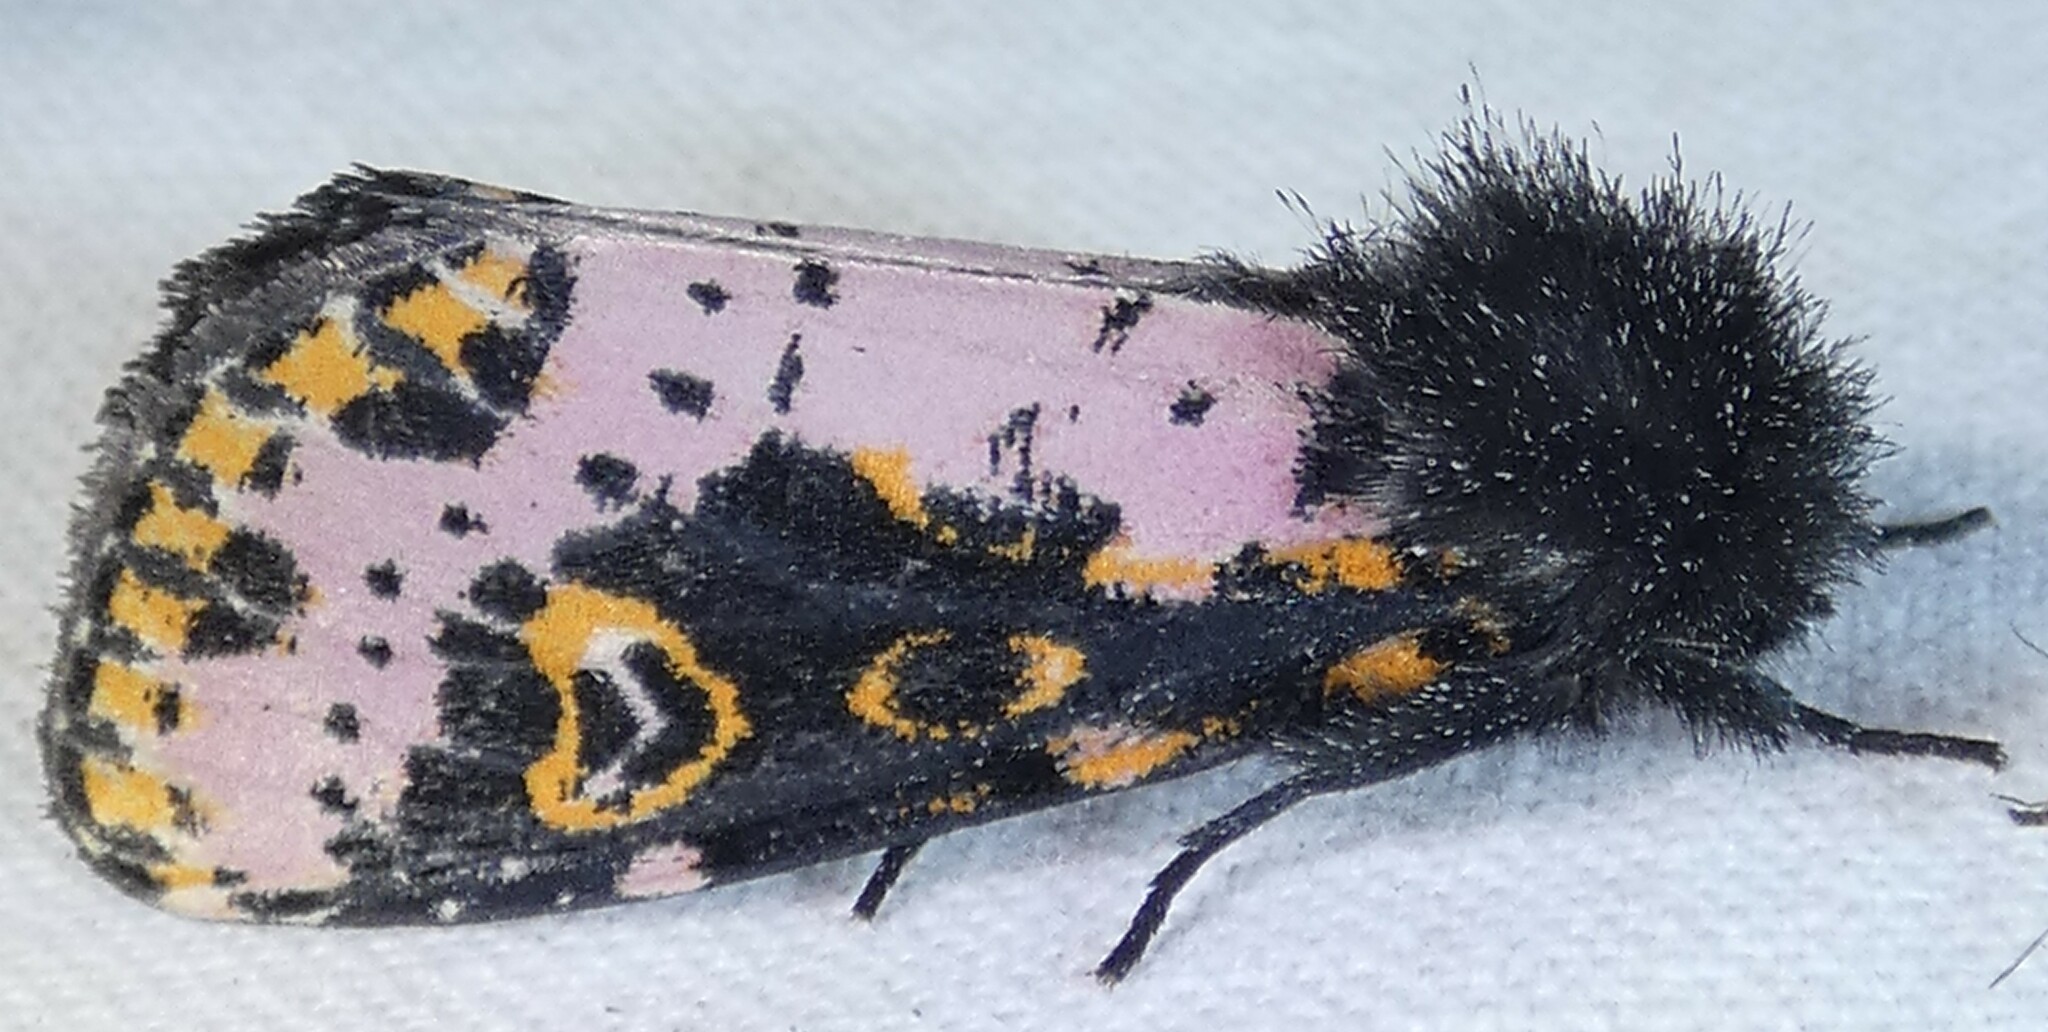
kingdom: Animalia
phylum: Arthropoda
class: Insecta
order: Lepidoptera
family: Noctuidae
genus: Xanthopastis
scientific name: Xanthopastis regnatrix
